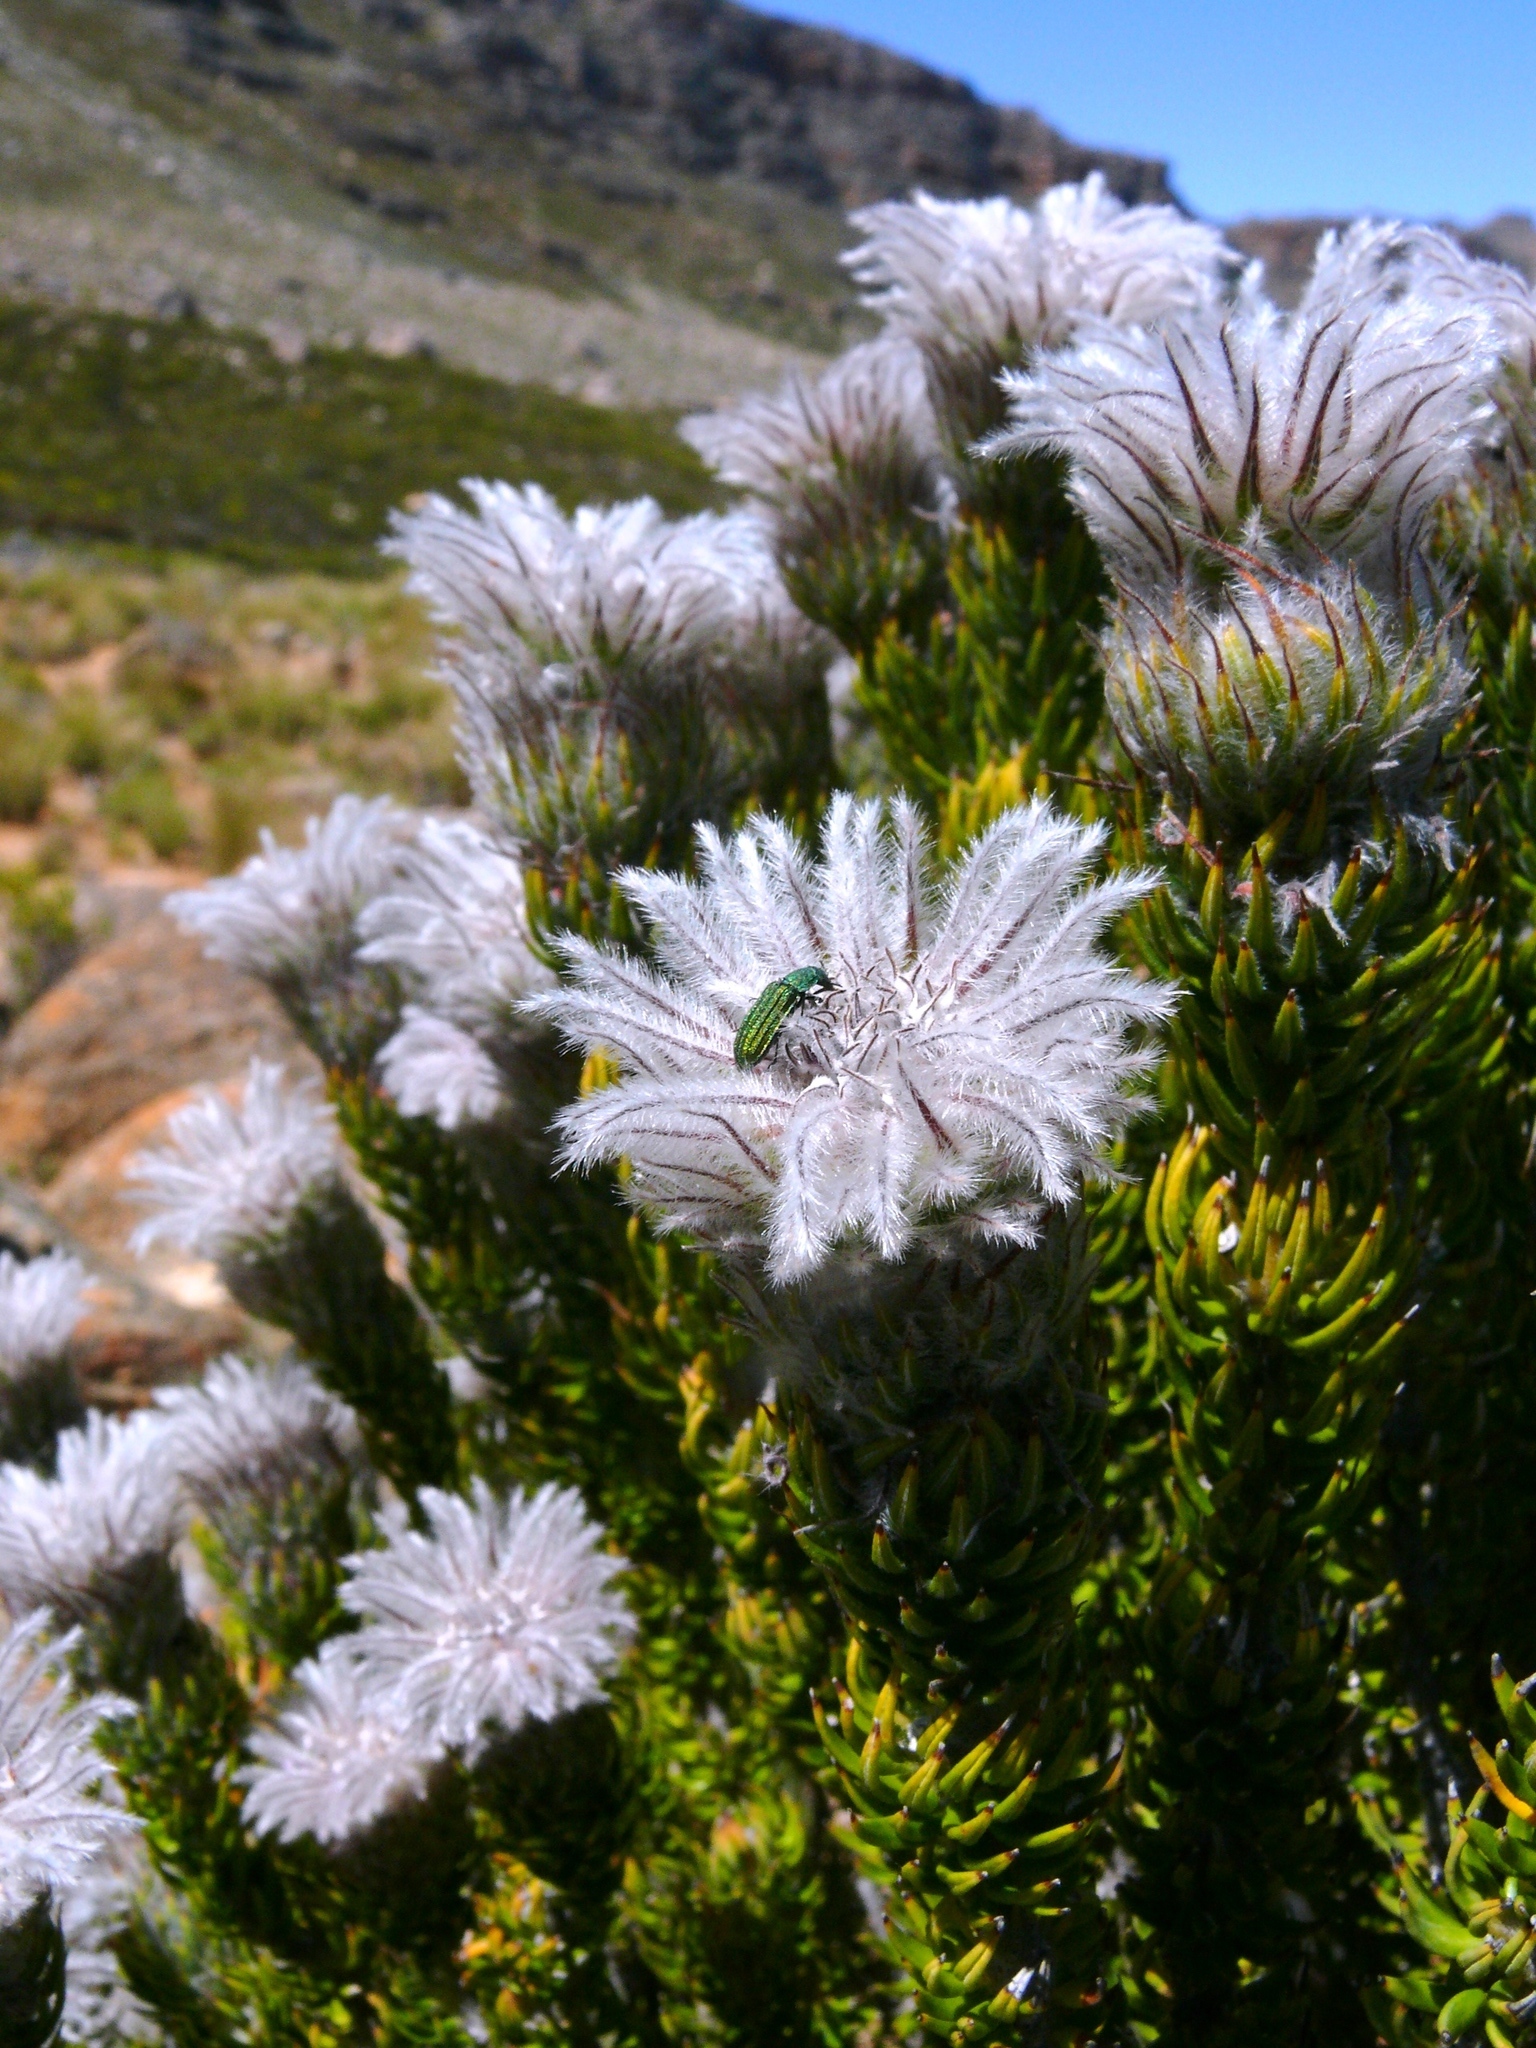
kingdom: Plantae
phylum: Tracheophyta
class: Magnoliopsida
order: Rosales
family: Rhamnaceae
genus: Phylica
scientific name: Phylica leipoldtii
